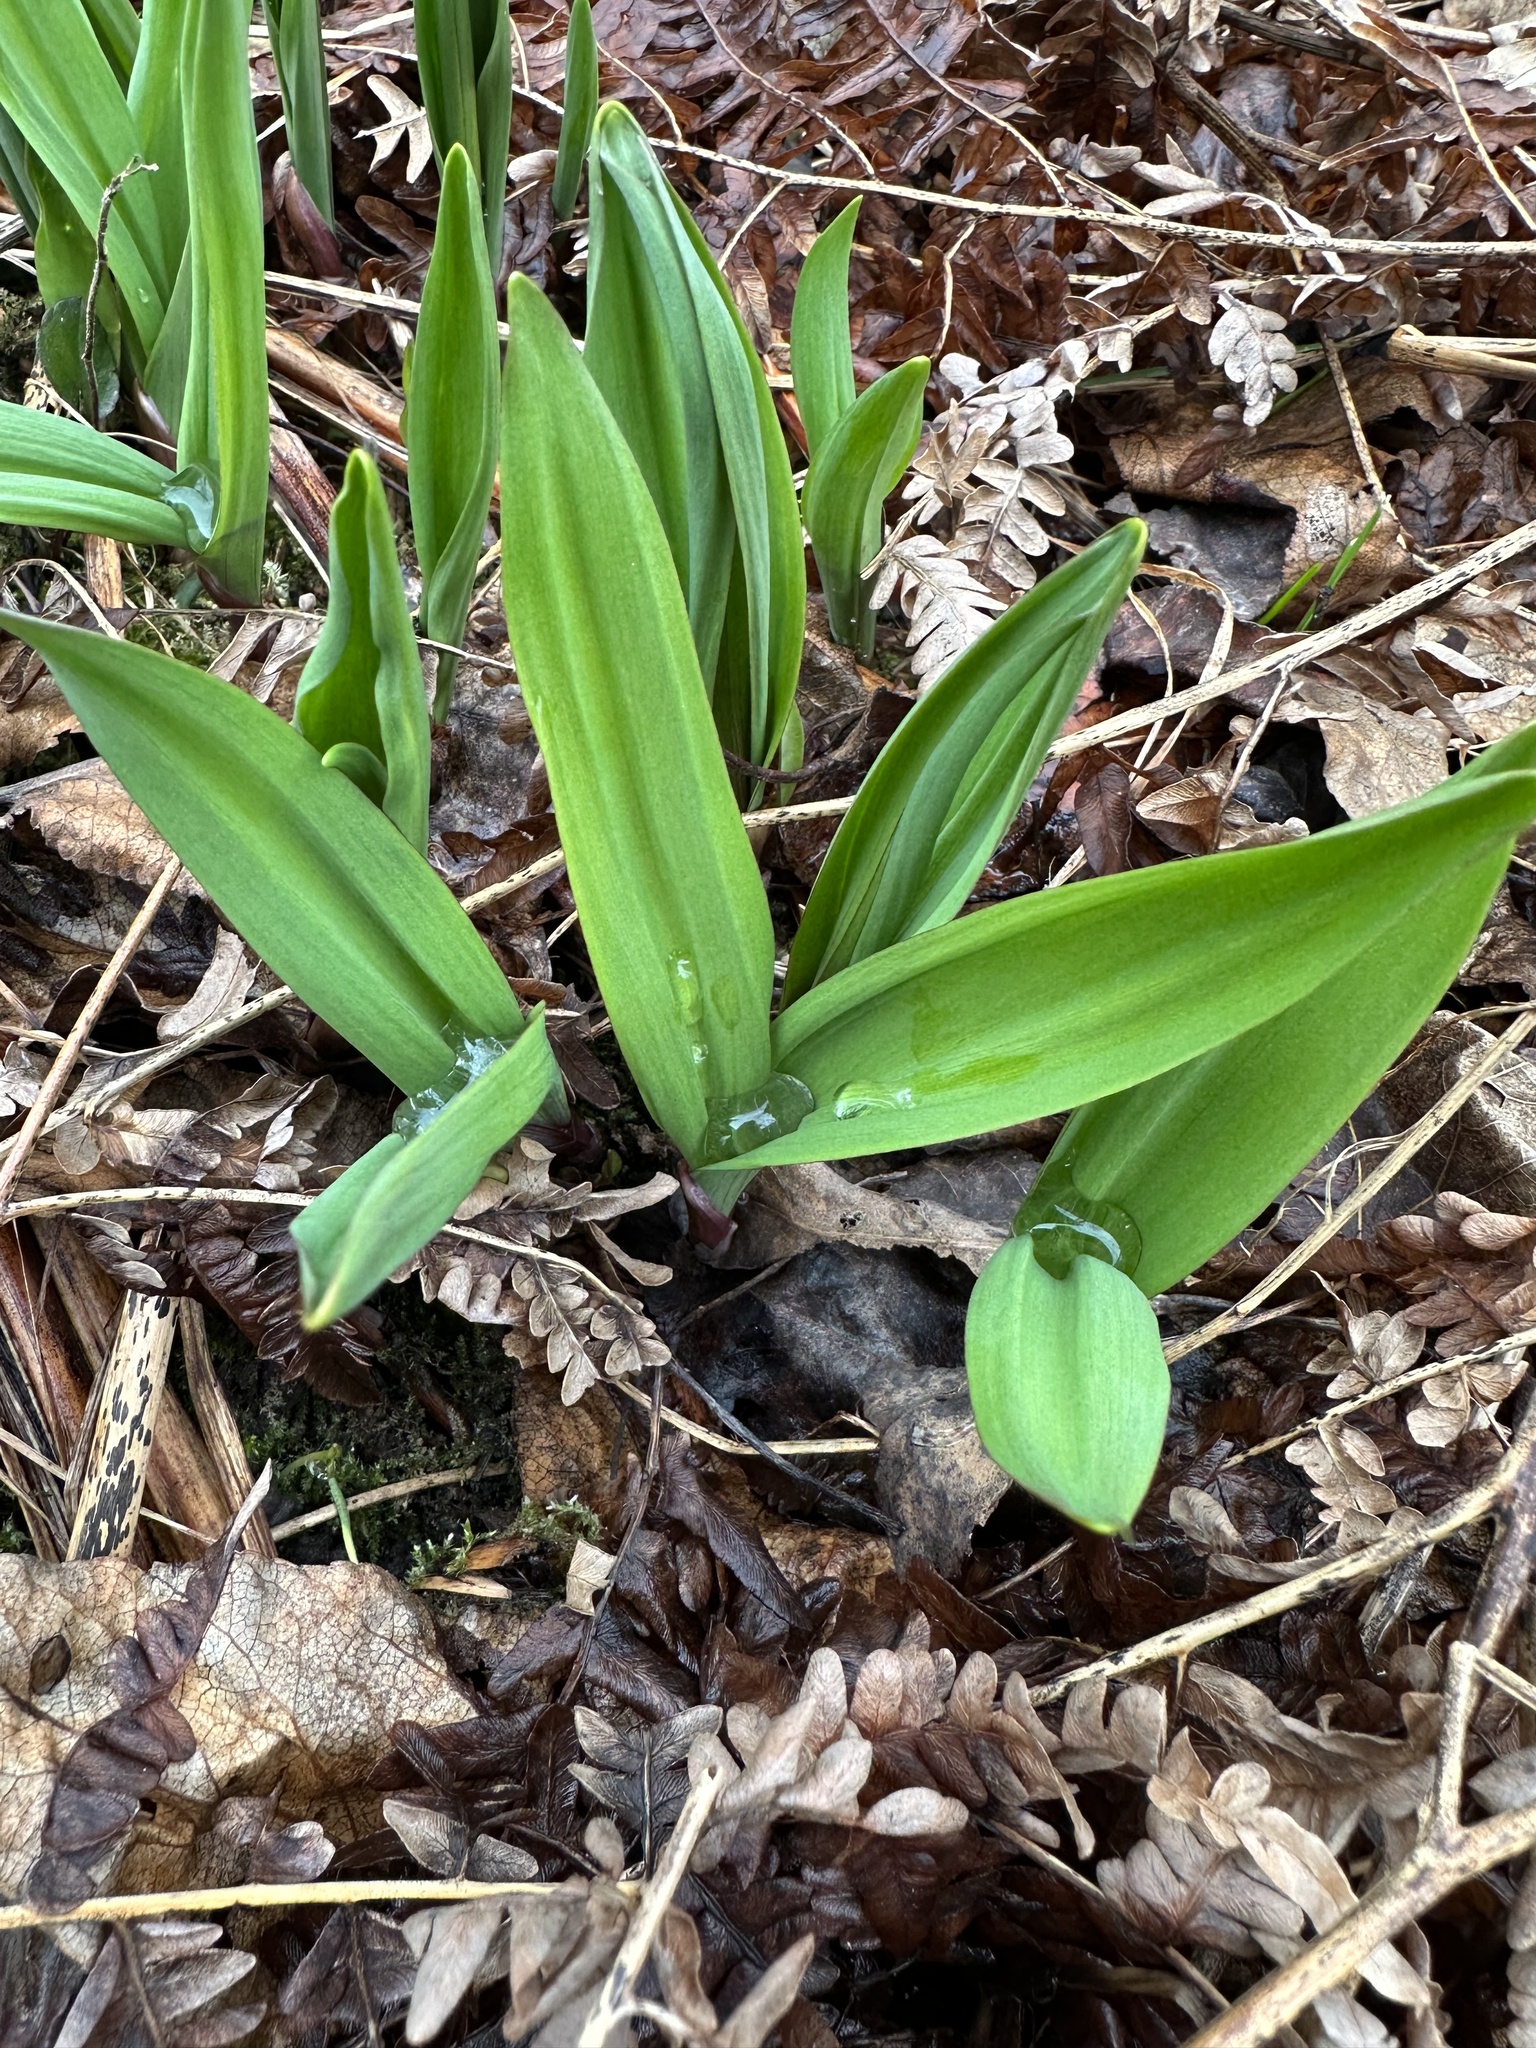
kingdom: Plantae
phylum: Tracheophyta
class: Liliopsida
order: Asparagales
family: Amaryllidaceae
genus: Allium
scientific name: Allium tricoccum
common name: Ramp
